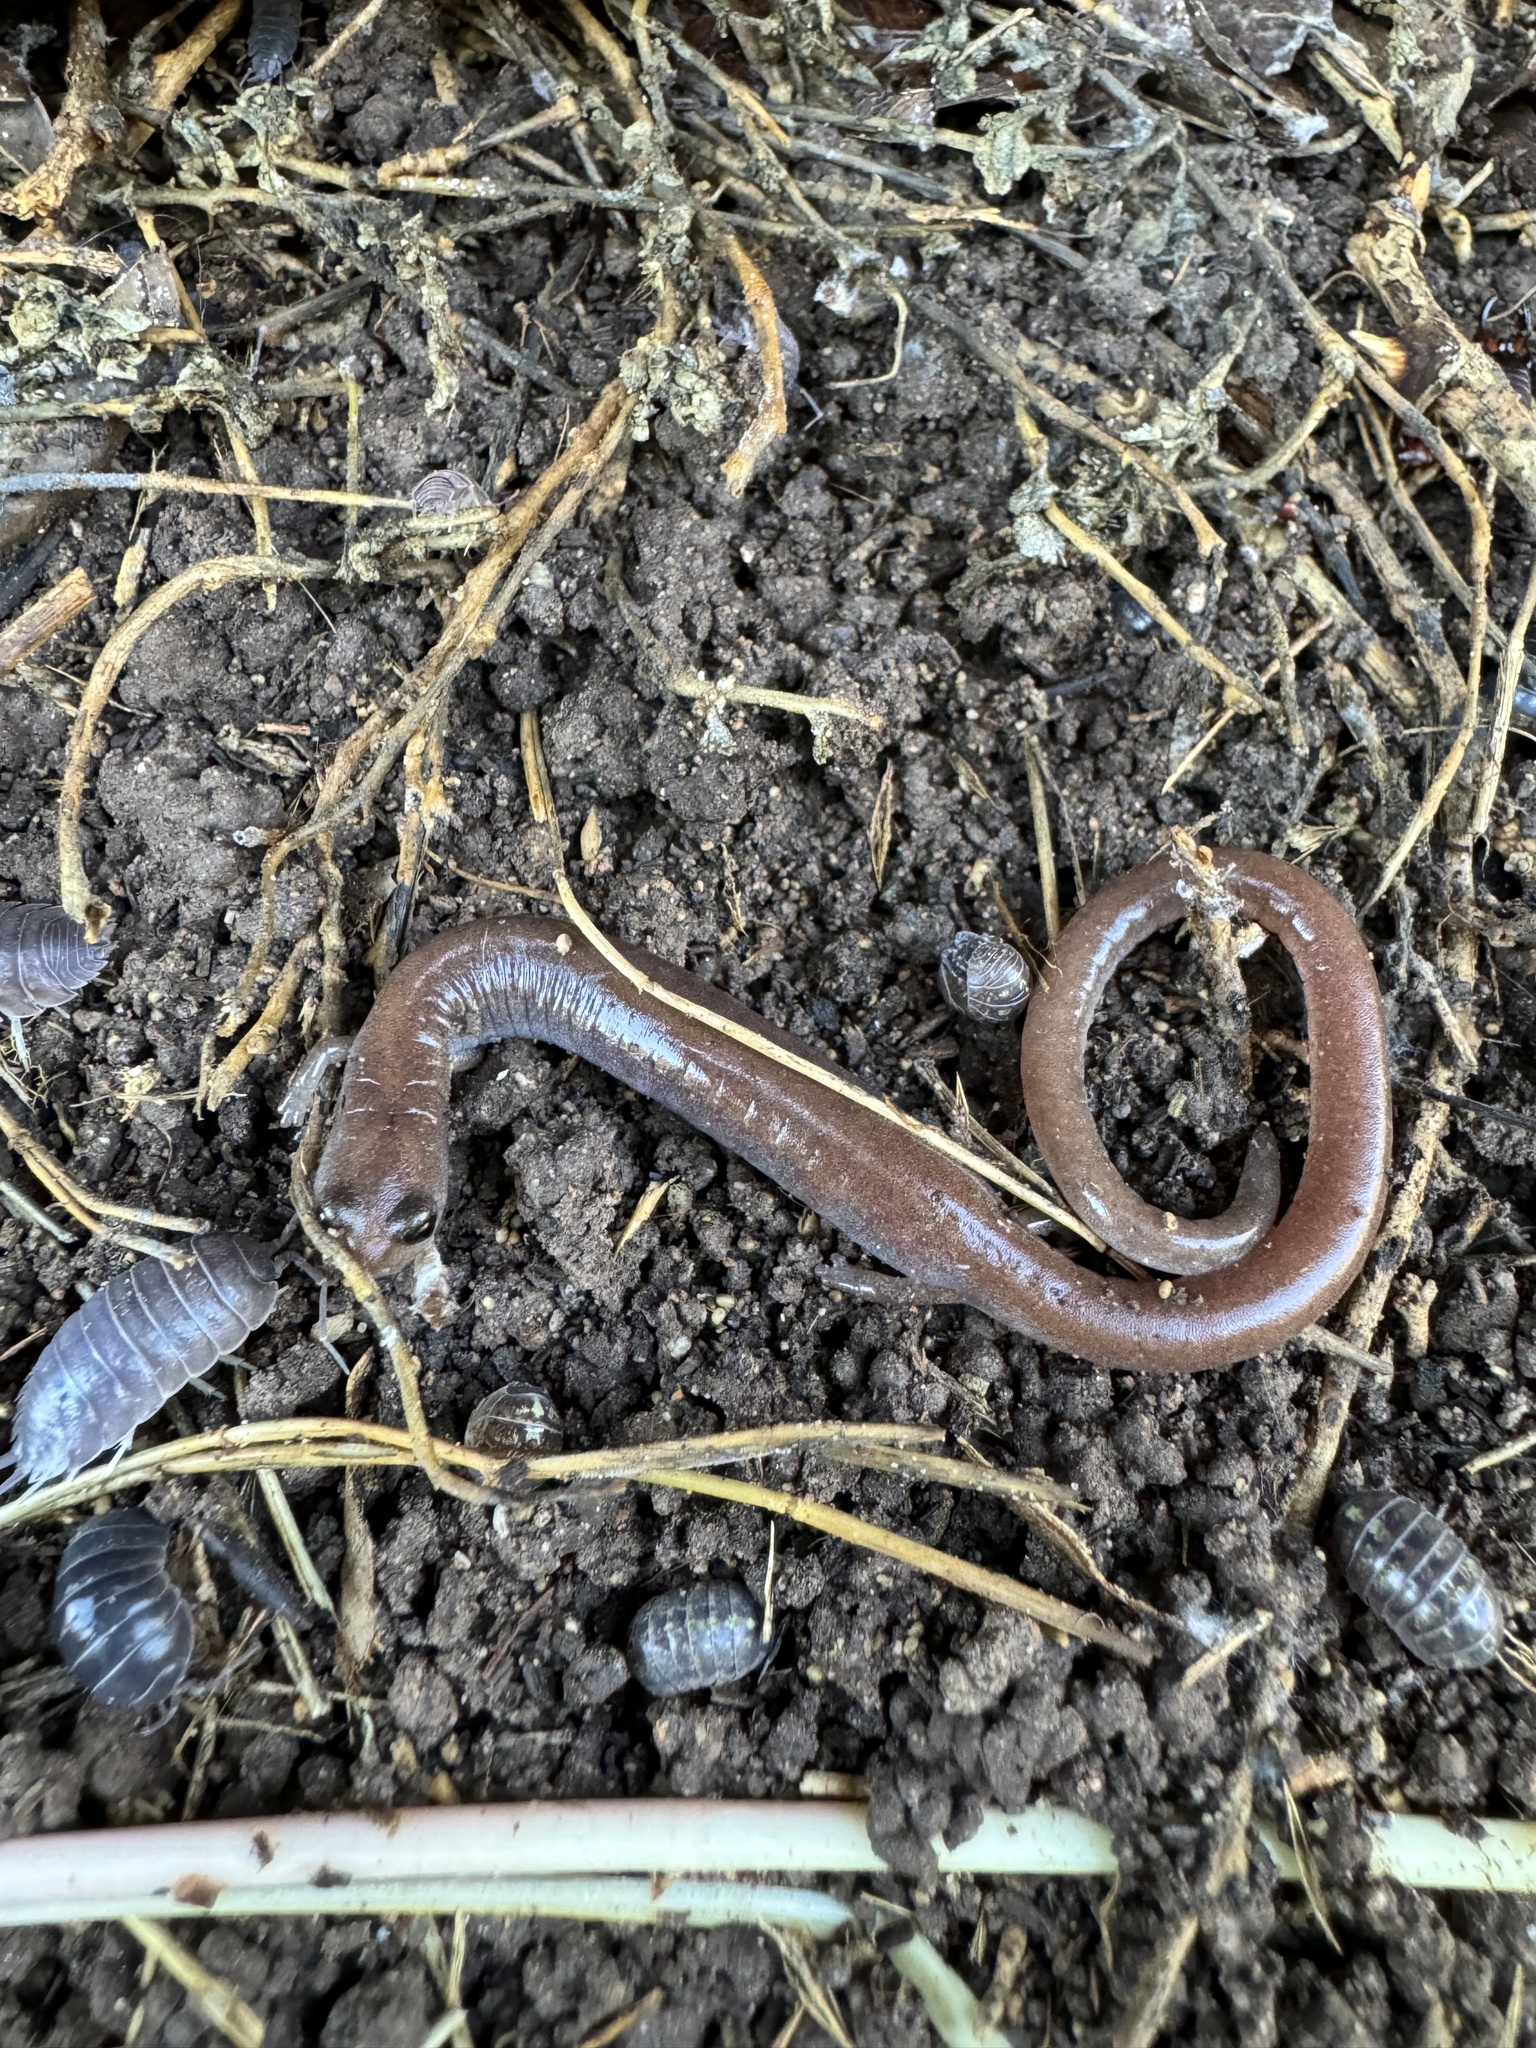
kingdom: Animalia
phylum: Chordata
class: Amphibia
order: Caudata
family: Plethodontidae
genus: Batrachoseps
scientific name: Batrachoseps major
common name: Garden slender salamander
